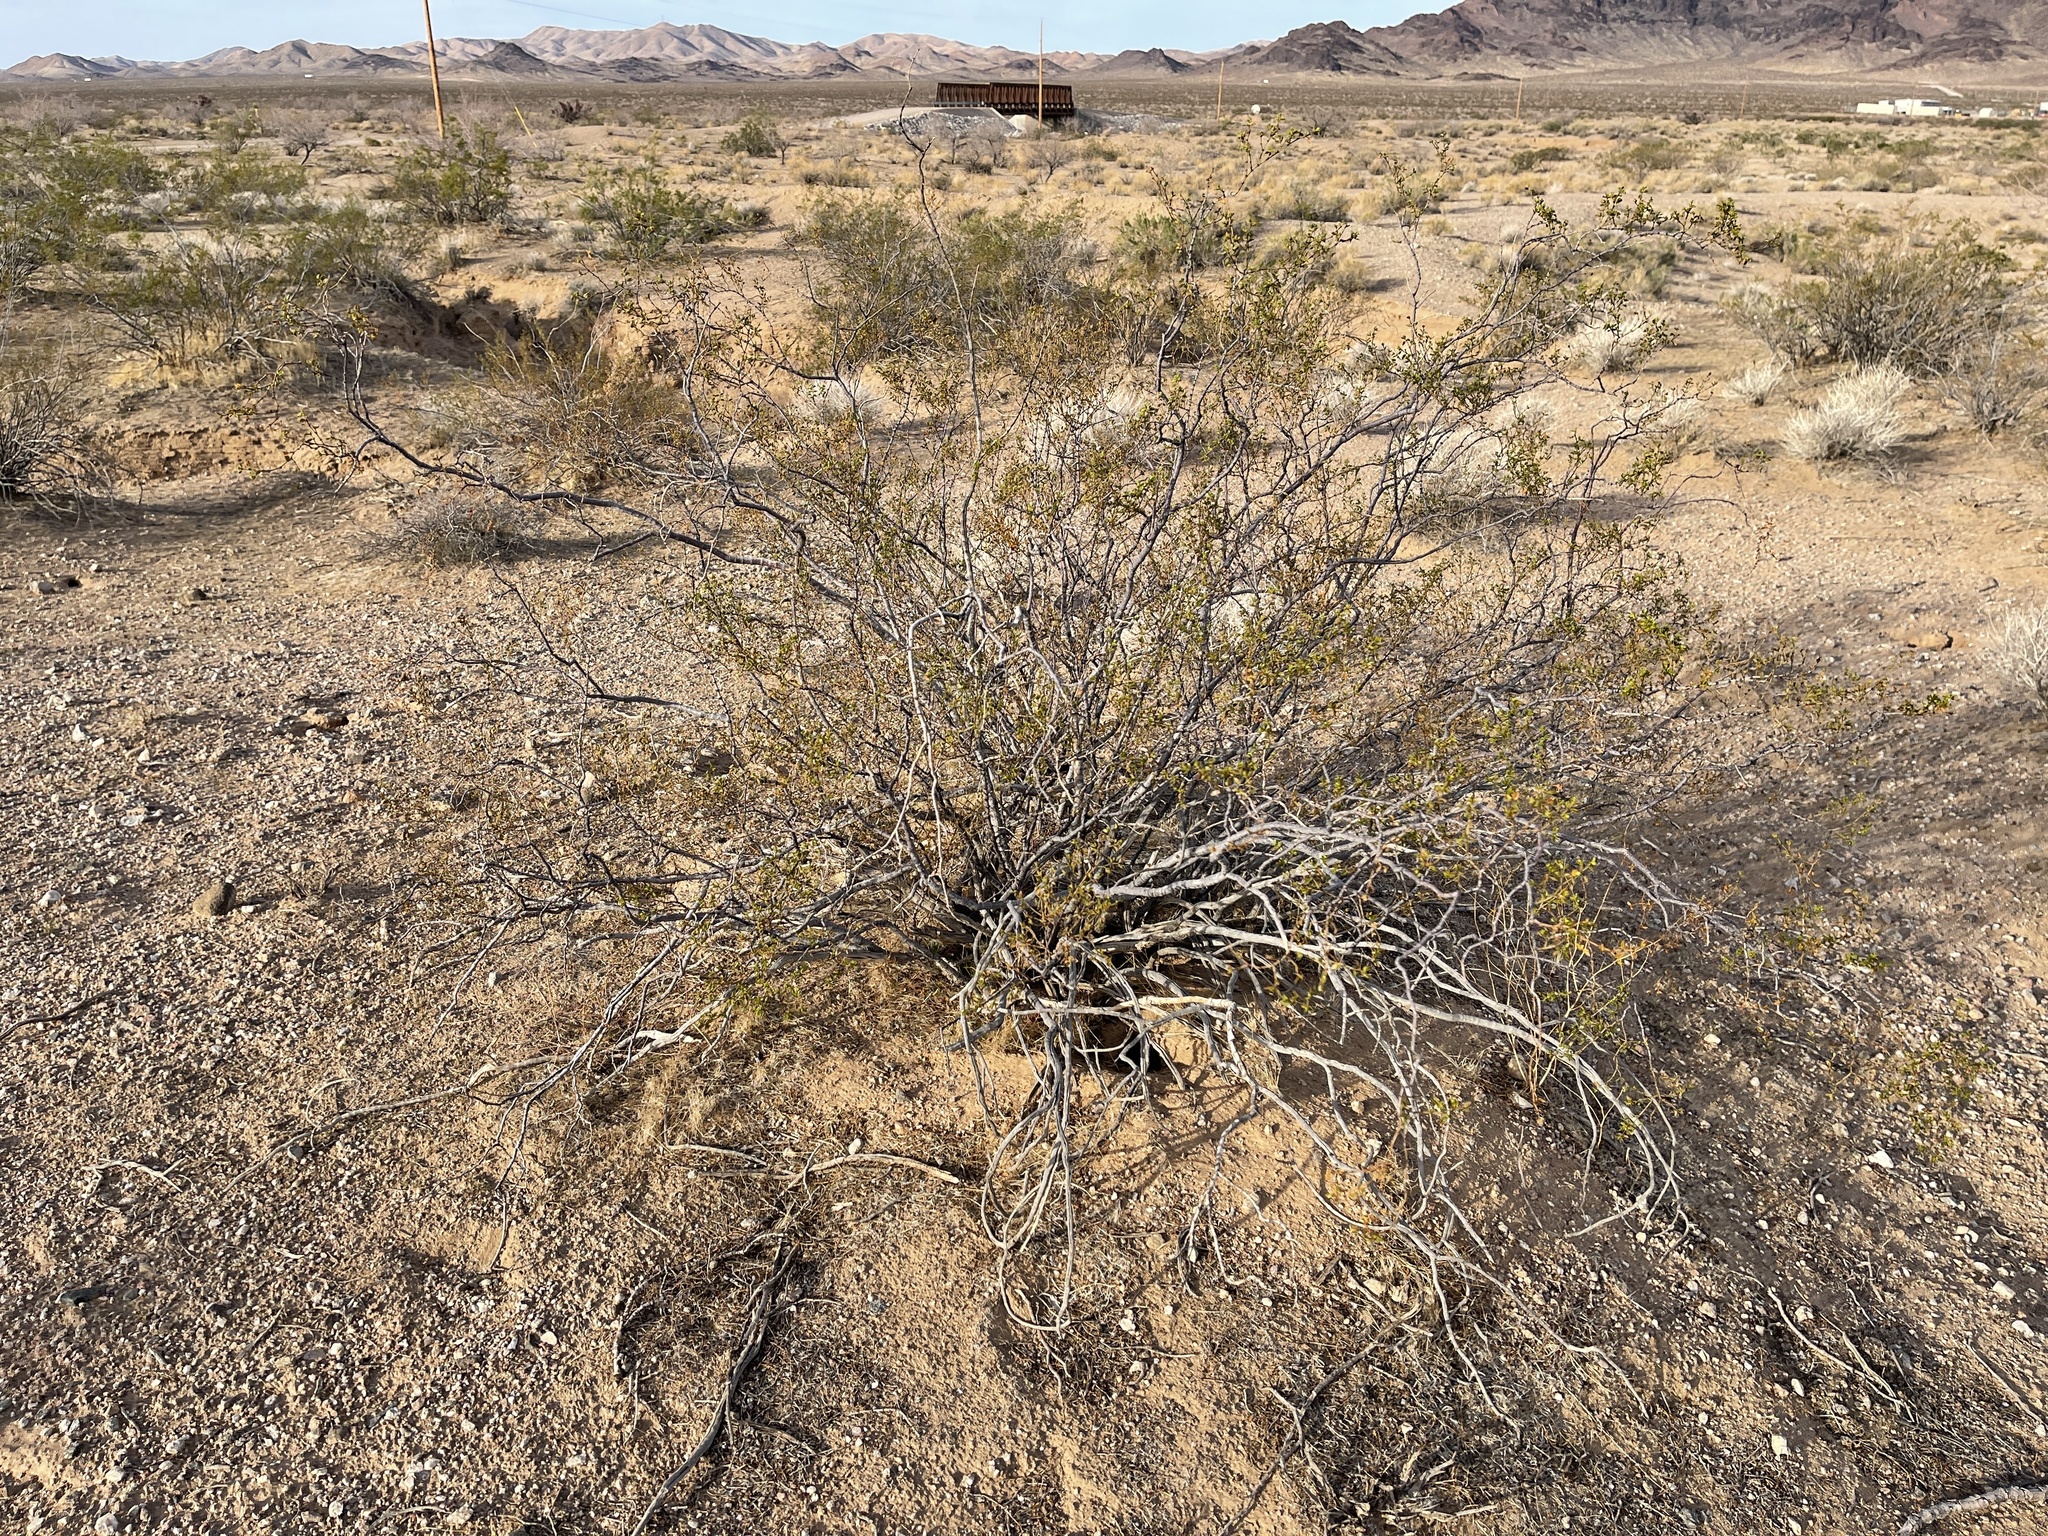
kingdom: Plantae
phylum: Tracheophyta
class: Magnoliopsida
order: Zygophyllales
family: Zygophyllaceae
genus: Larrea
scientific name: Larrea tridentata
